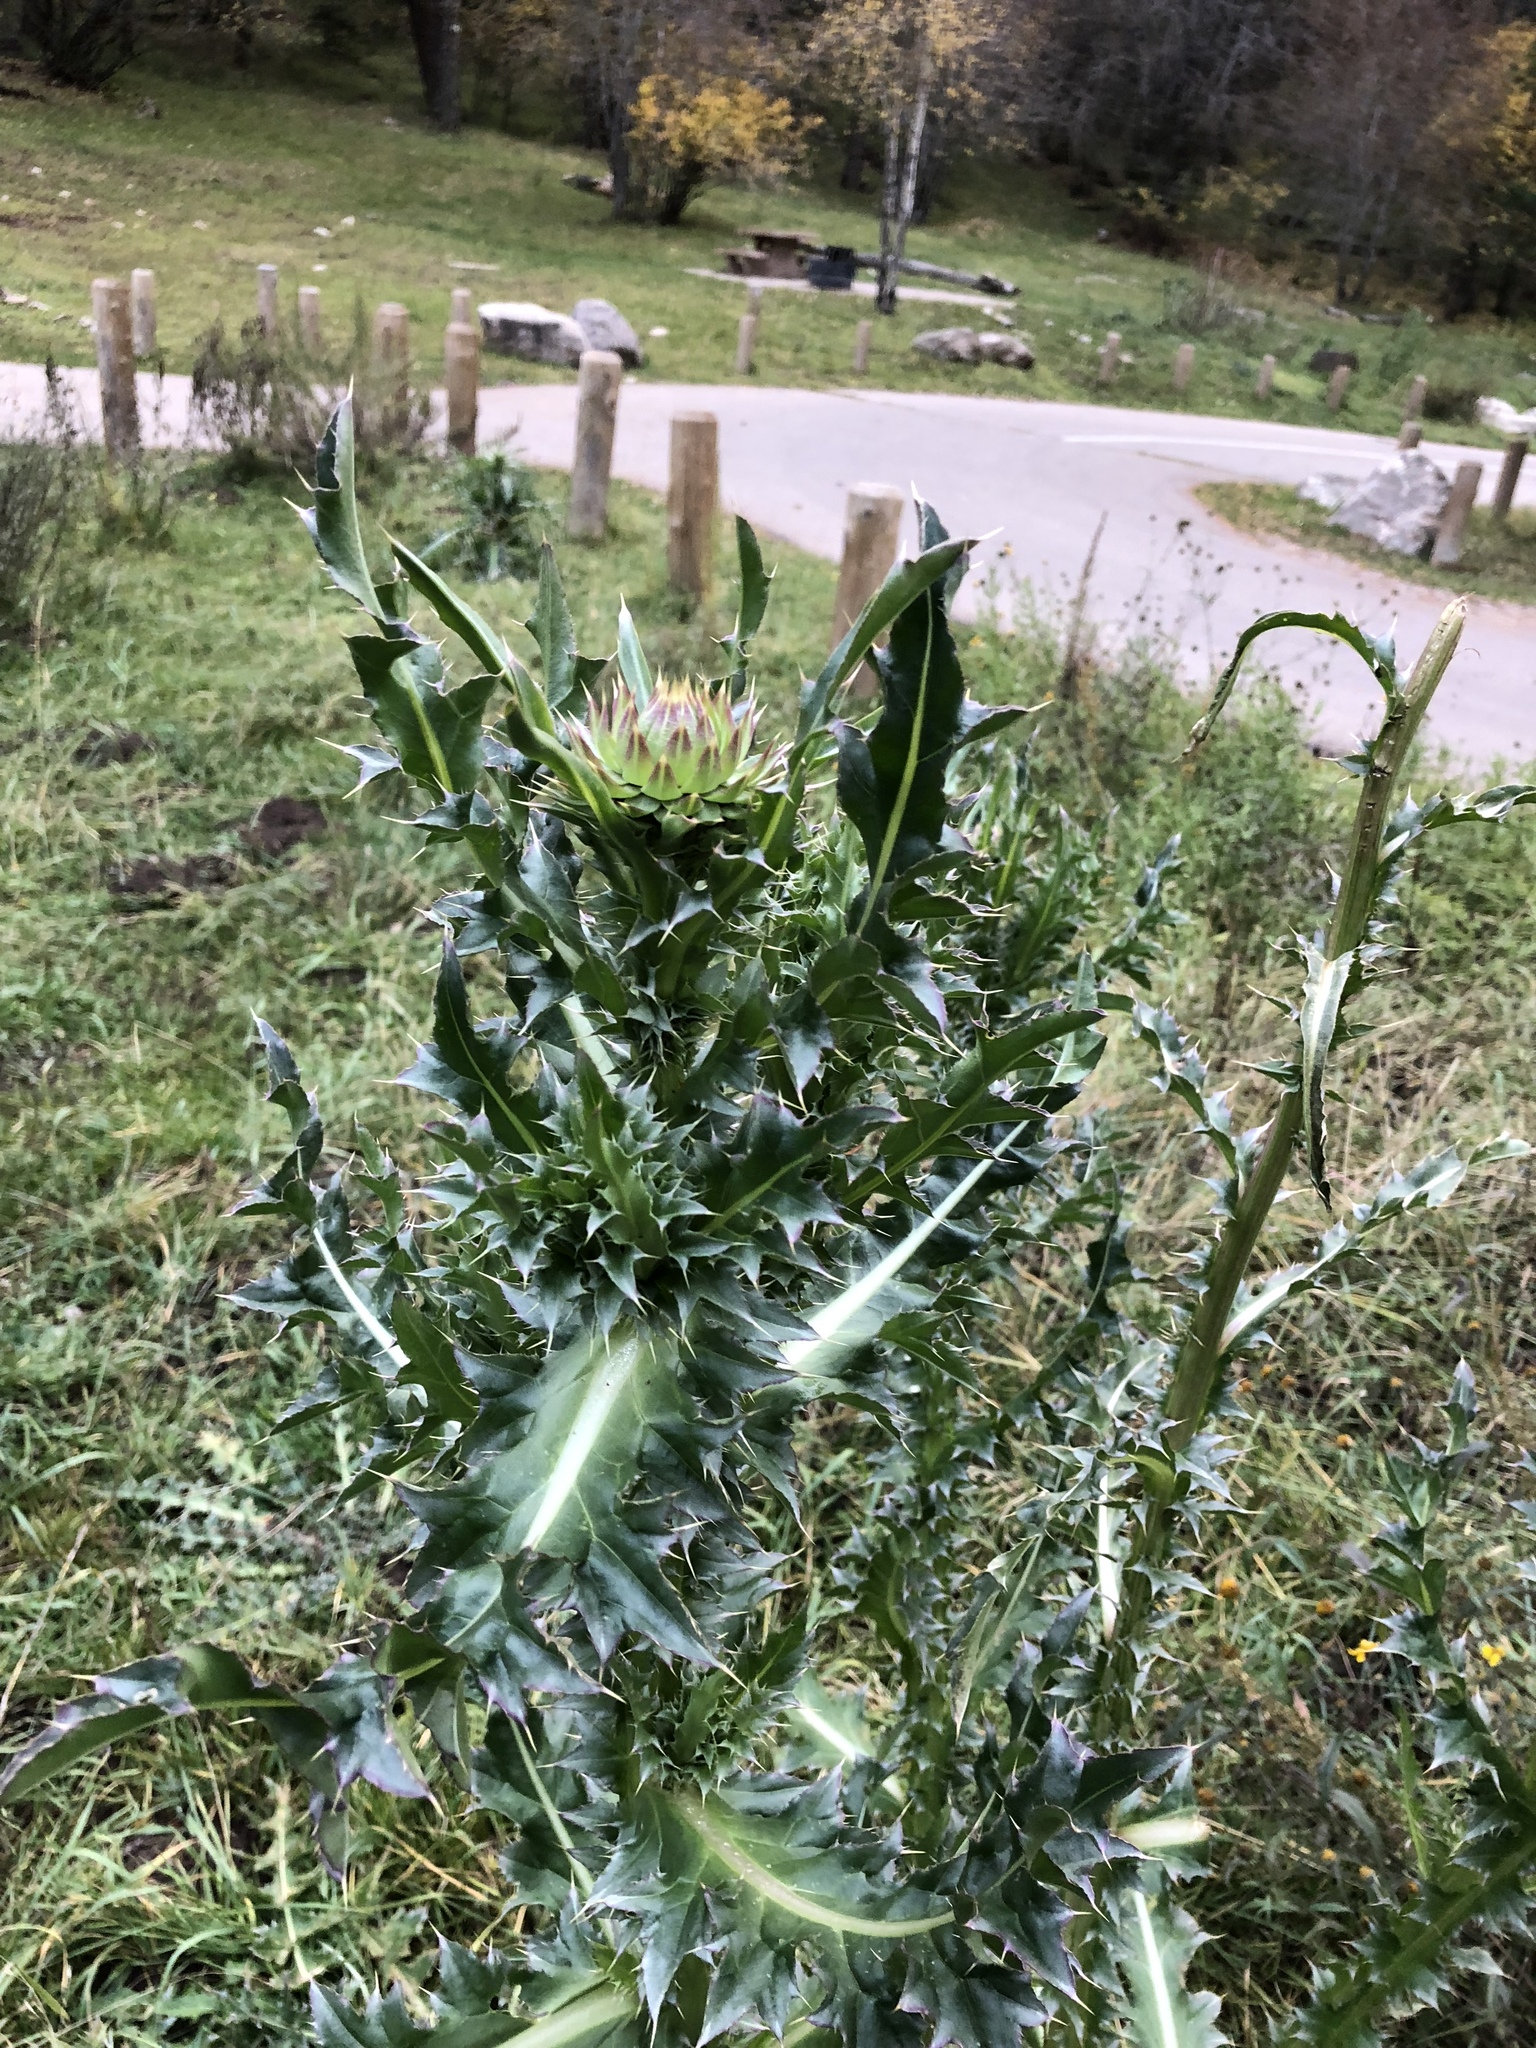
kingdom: Plantae
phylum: Tracheophyta
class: Magnoliopsida
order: Asterales
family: Asteraceae
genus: Carduus
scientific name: Carduus nutans
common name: Musk thistle
